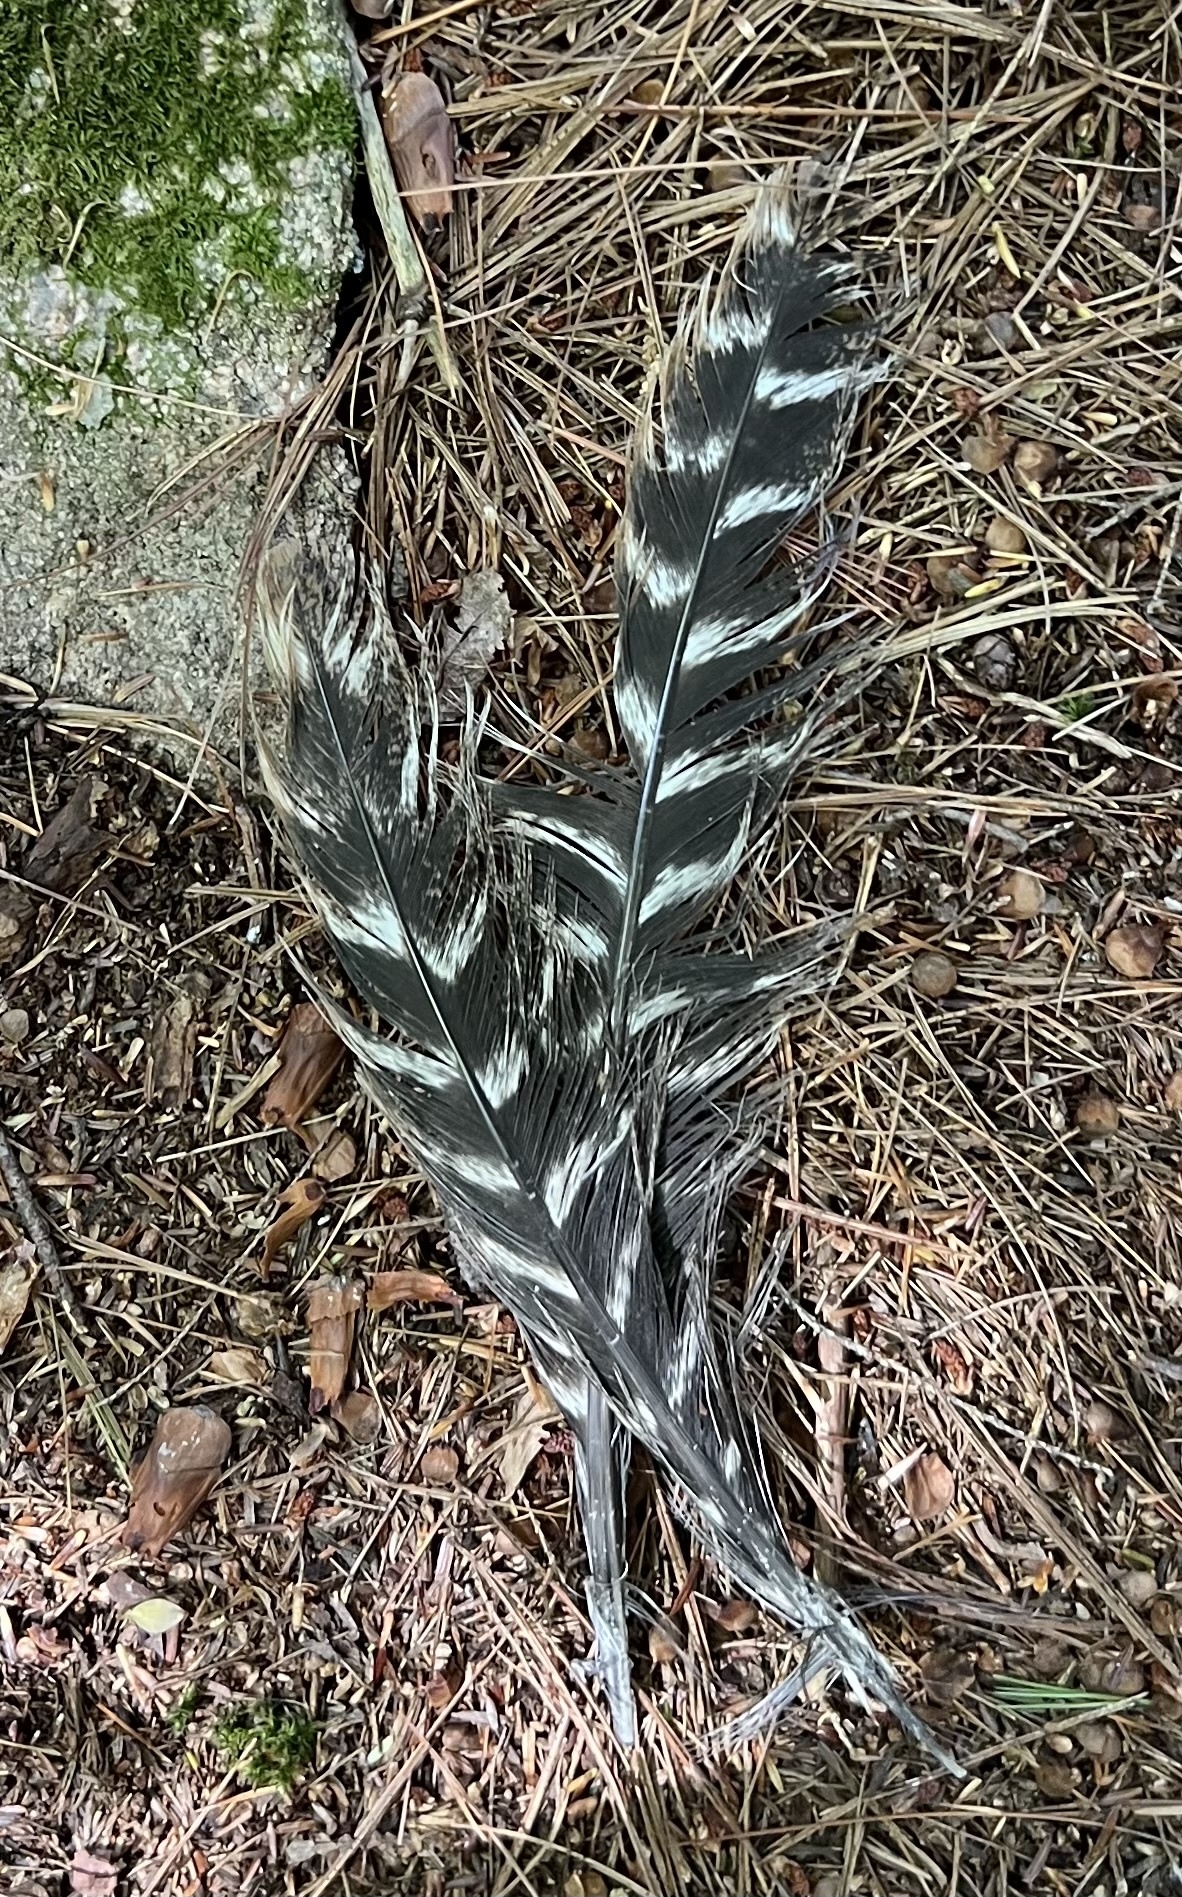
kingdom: Animalia
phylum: Chordata
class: Aves
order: Galliformes
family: Phasianidae
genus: Meleagris
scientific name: Meleagris gallopavo
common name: Wild turkey
